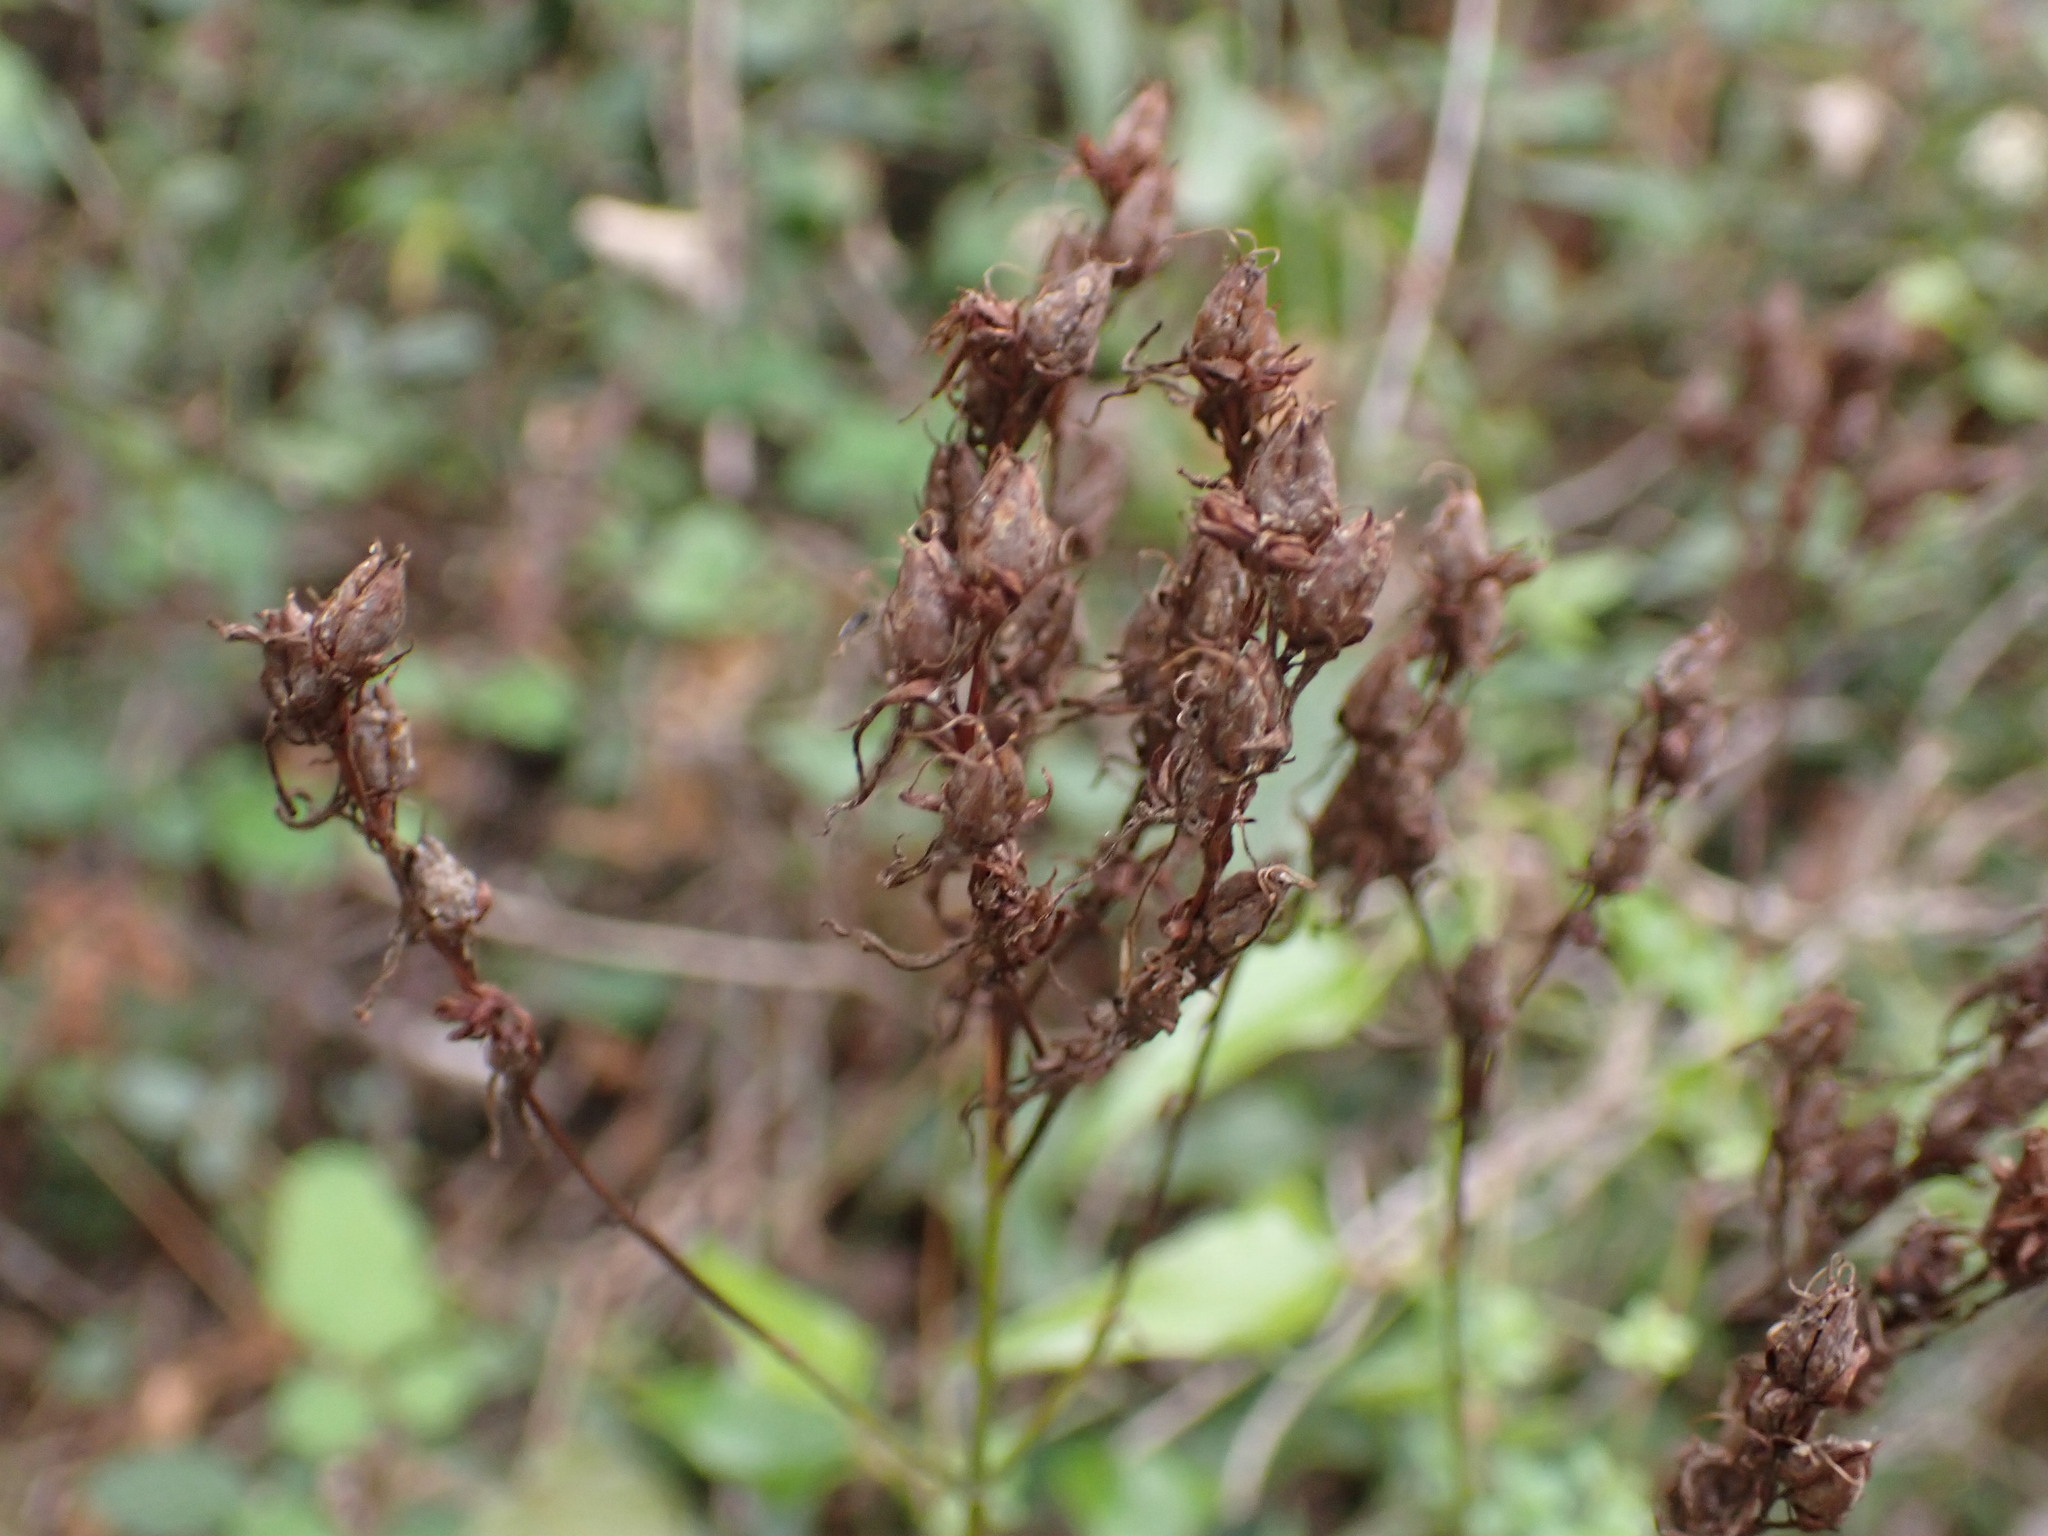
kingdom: Plantae
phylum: Tracheophyta
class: Magnoliopsida
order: Malpighiales
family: Hypericaceae
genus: Hypericum
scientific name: Hypericum perforatum
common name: Common st. johnswort
